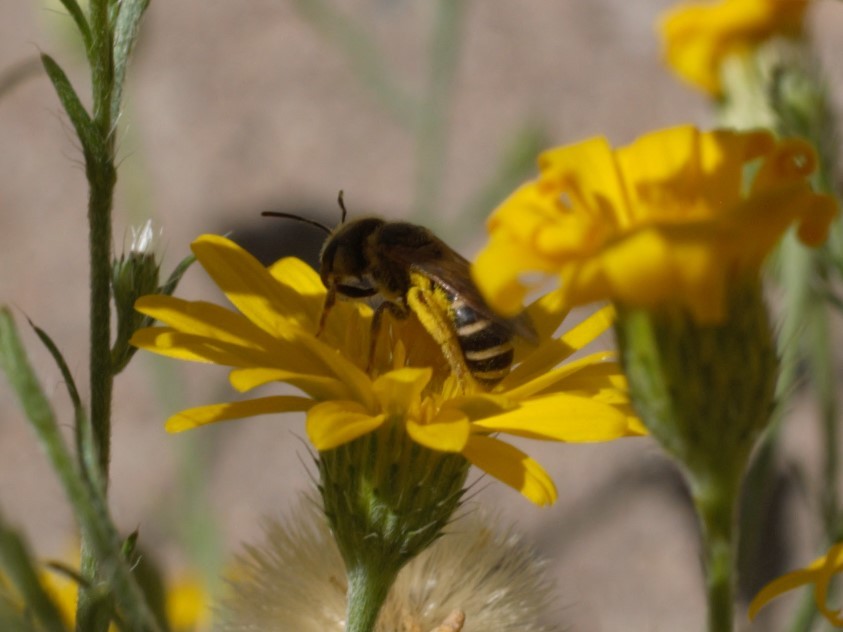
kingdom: Animalia
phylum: Arthropoda
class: Insecta
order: Hymenoptera
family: Halictidae
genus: Halictus
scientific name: Halictus ligatus
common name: Ligated furrow bee
